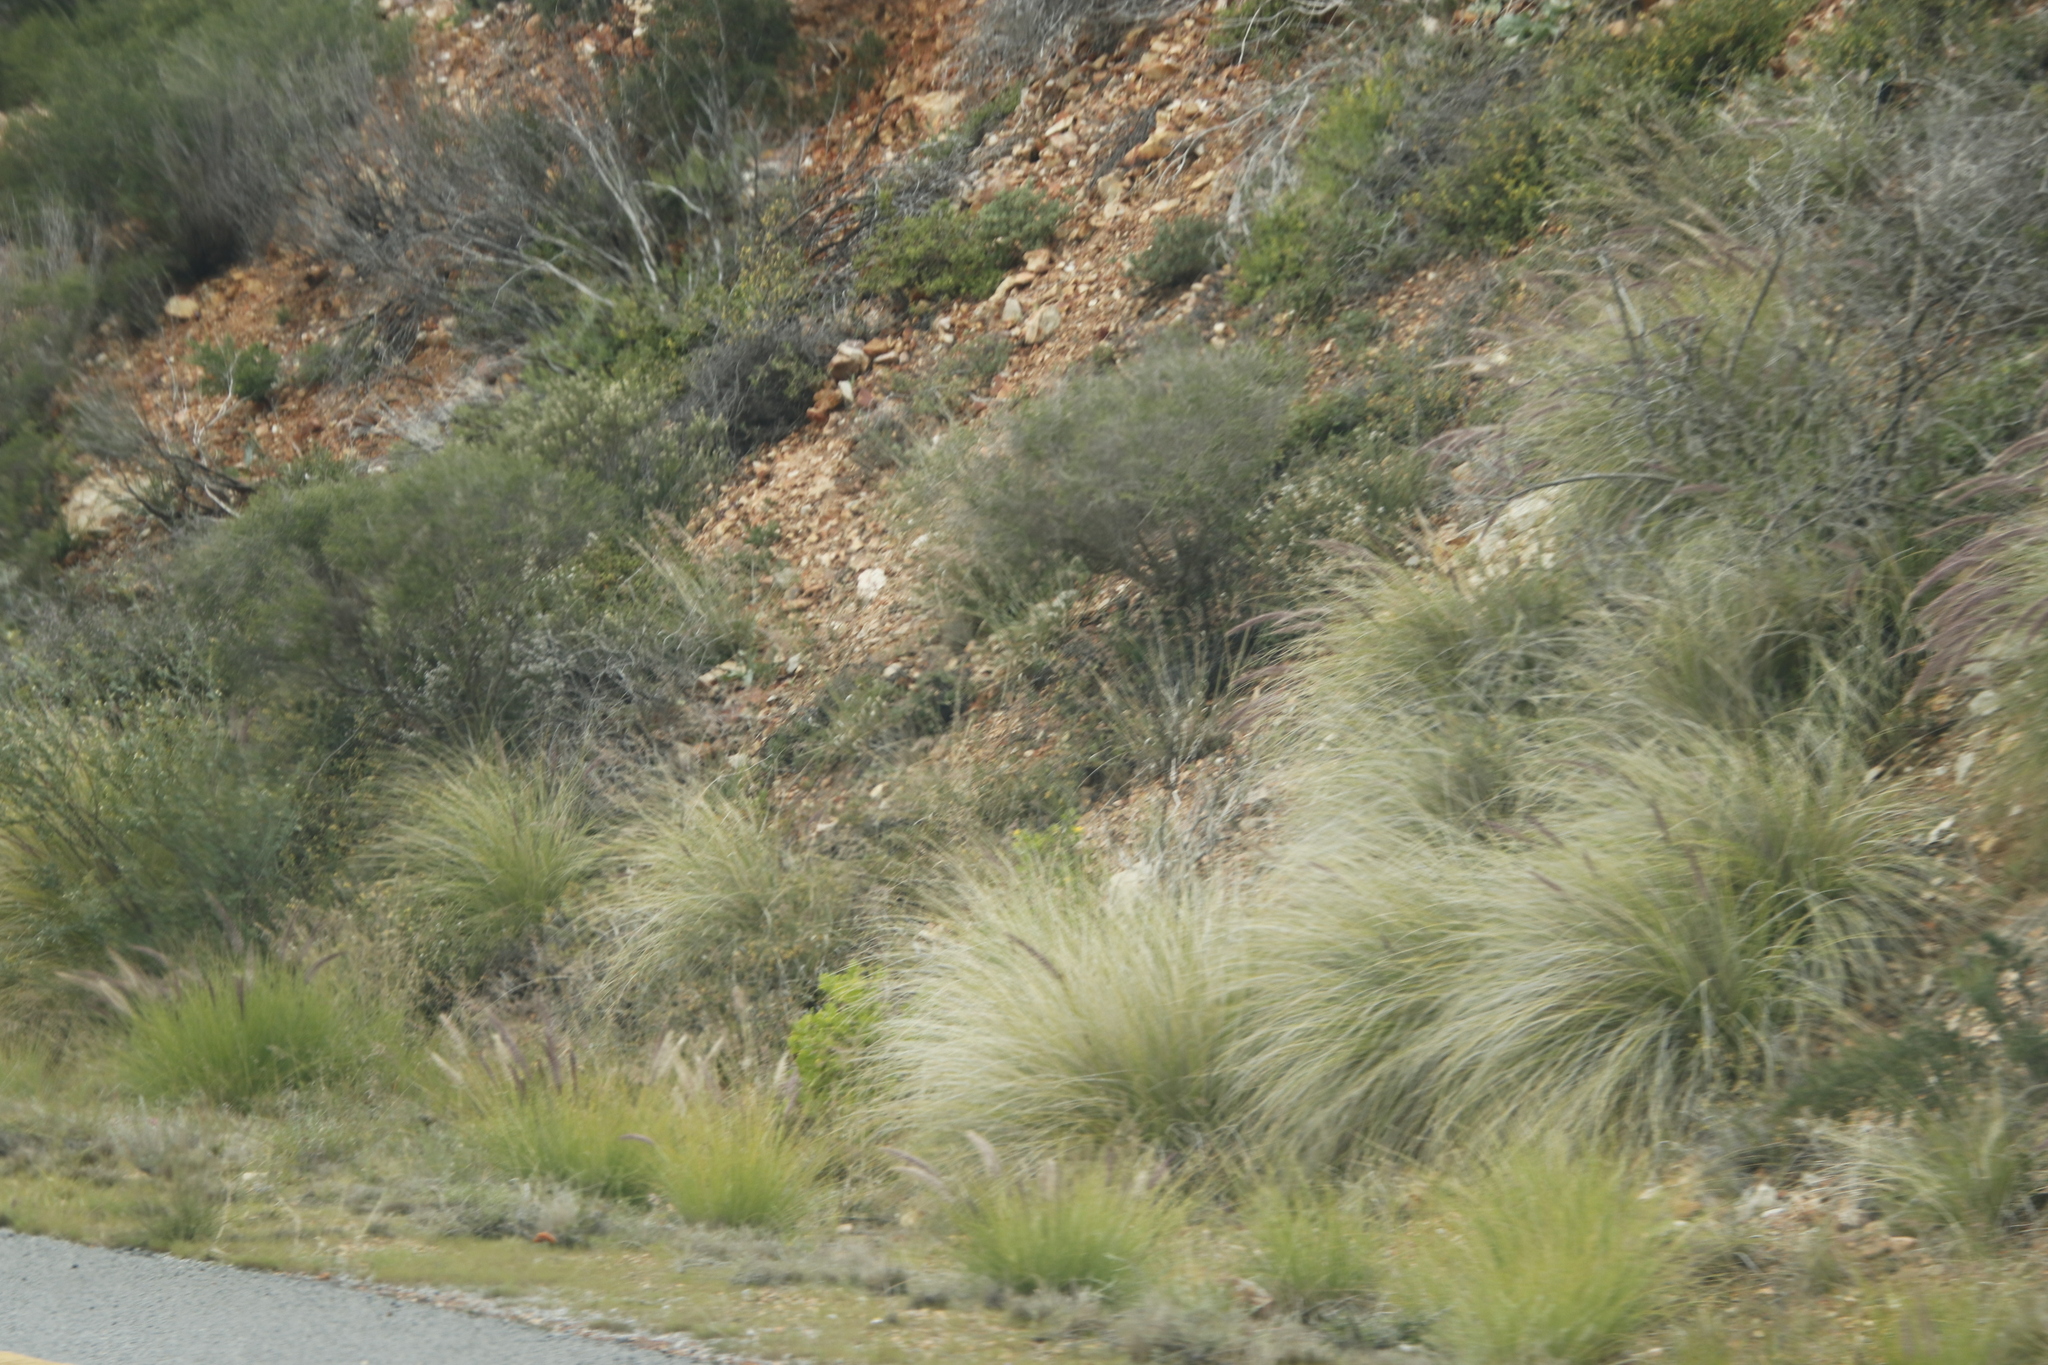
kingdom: Plantae
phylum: Tracheophyta
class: Liliopsida
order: Poales
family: Poaceae
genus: Cenchrus
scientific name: Cenchrus setaceus
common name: Crimson fountaingrass
